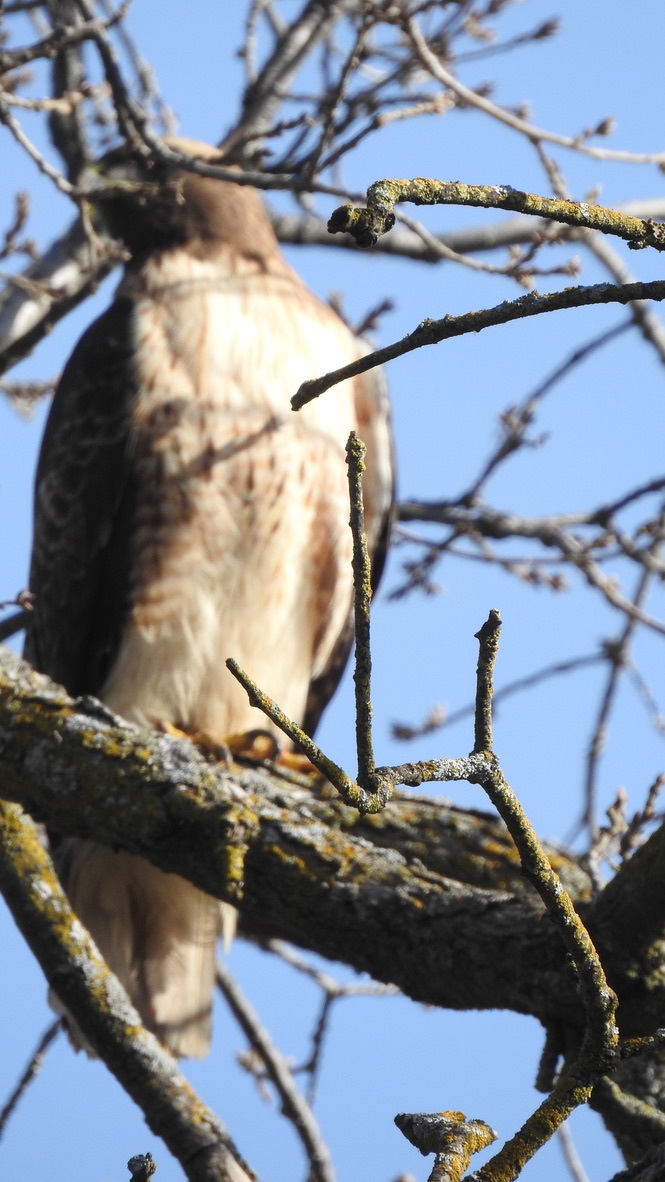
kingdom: Animalia
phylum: Chordata
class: Aves
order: Accipitriformes
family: Accipitridae
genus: Buteo
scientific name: Buteo jamaicensis
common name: Red-tailed hawk
